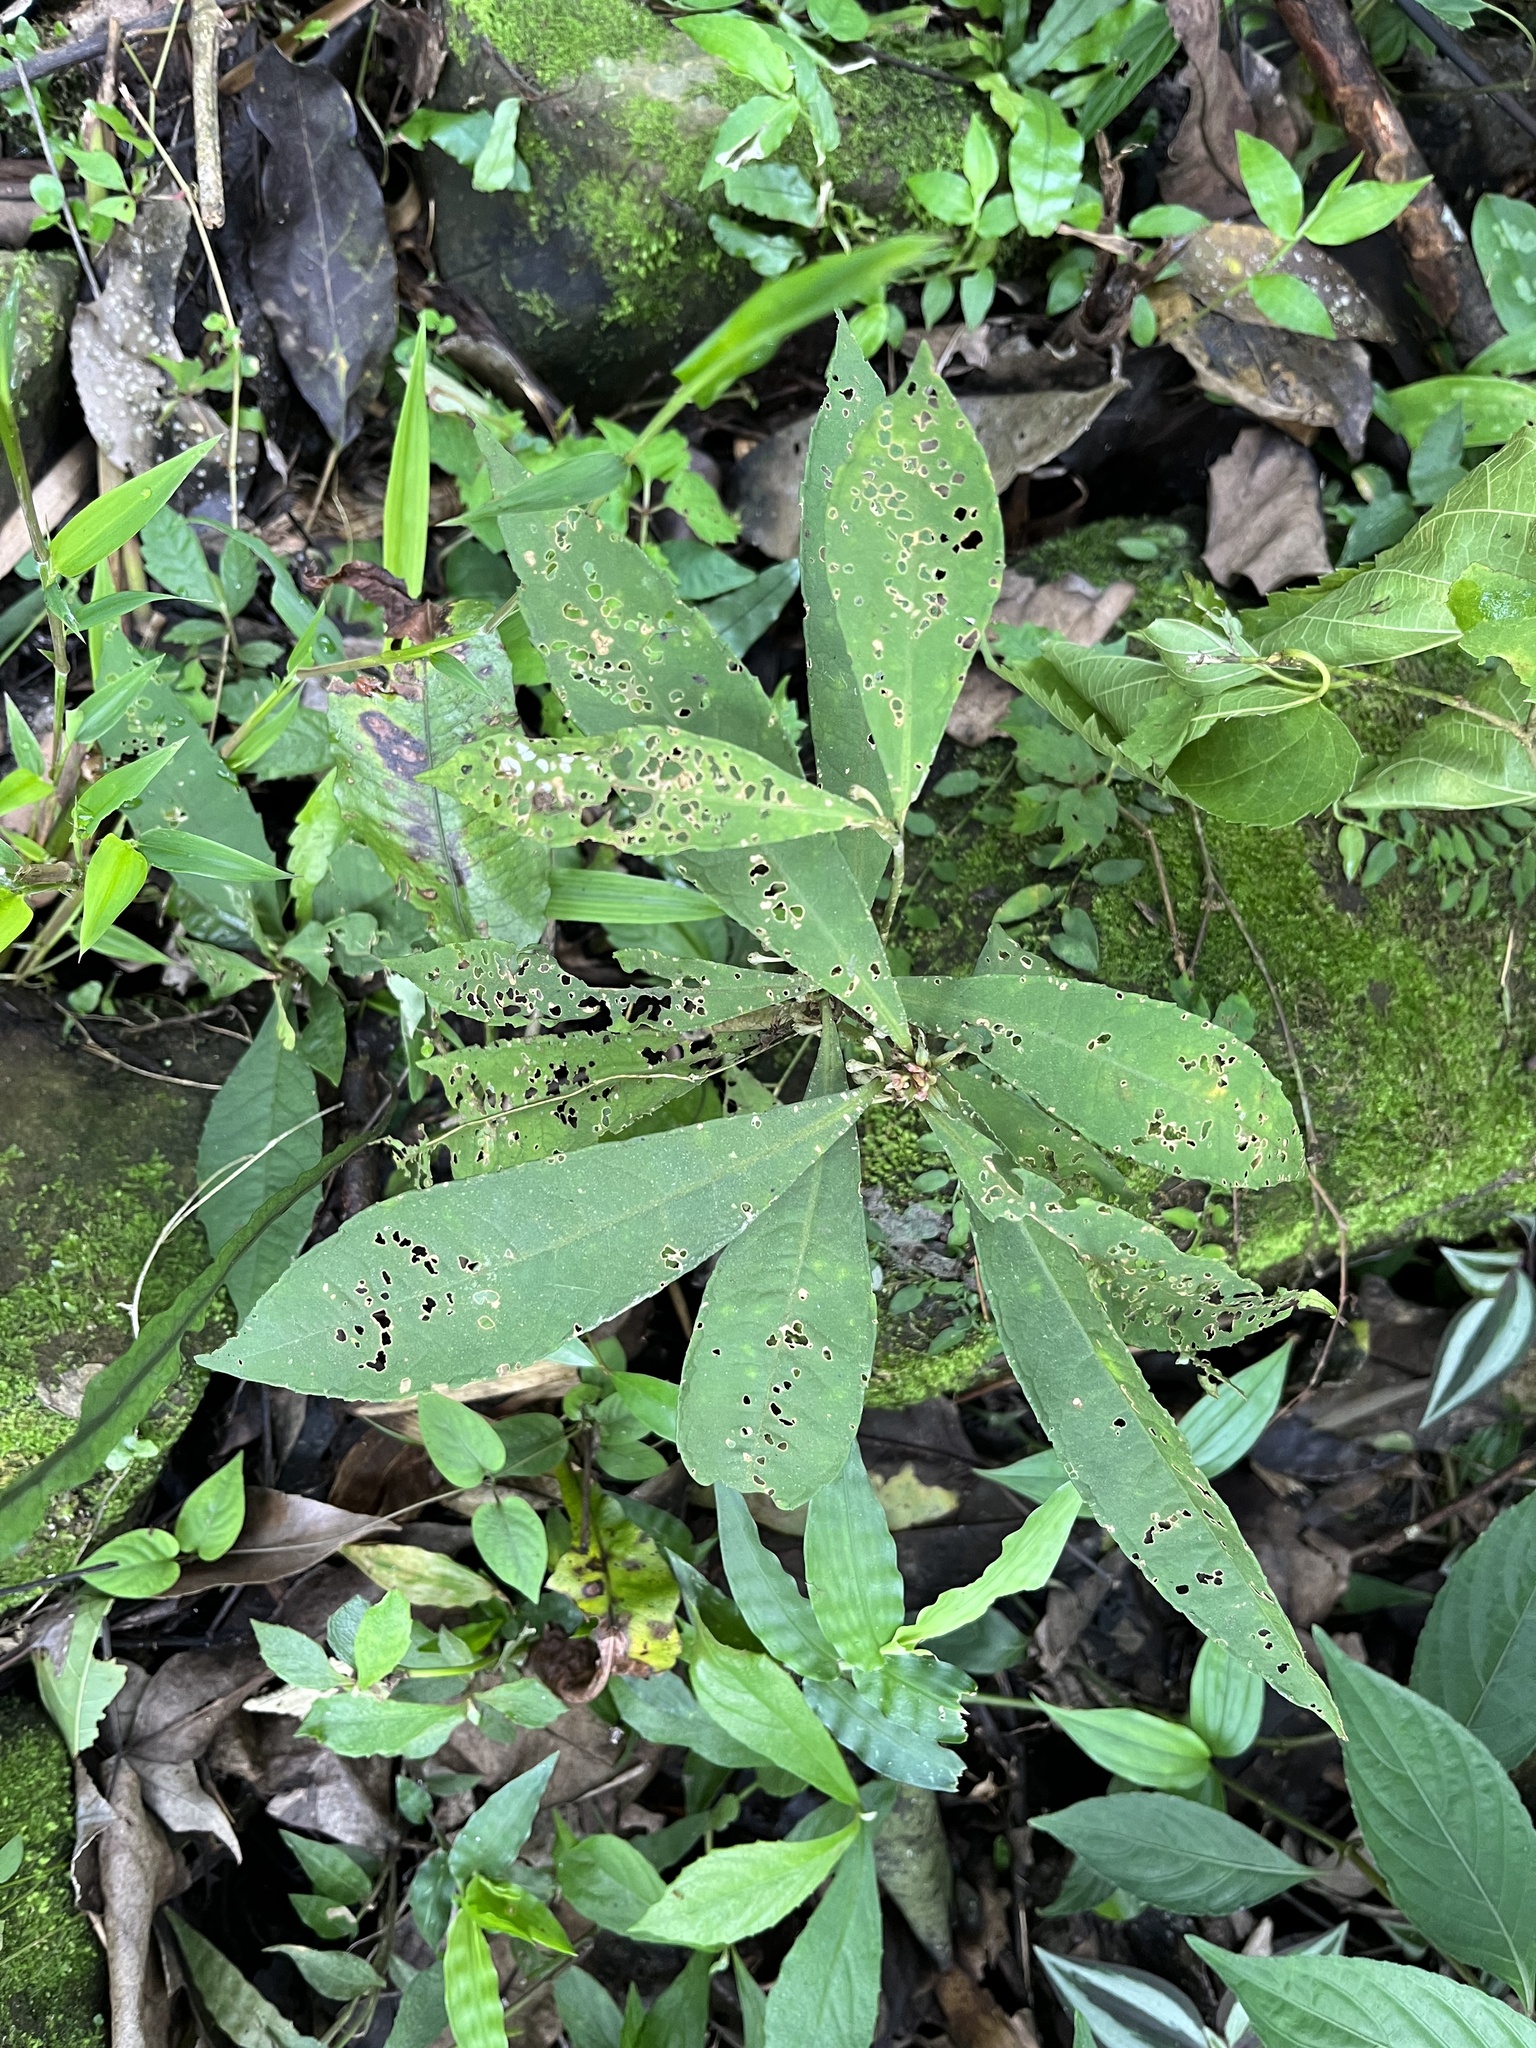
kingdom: Plantae
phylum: Tracheophyta
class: Magnoliopsida
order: Ericales
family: Primulaceae
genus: Ardisia
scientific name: Ardisia cornudentata
